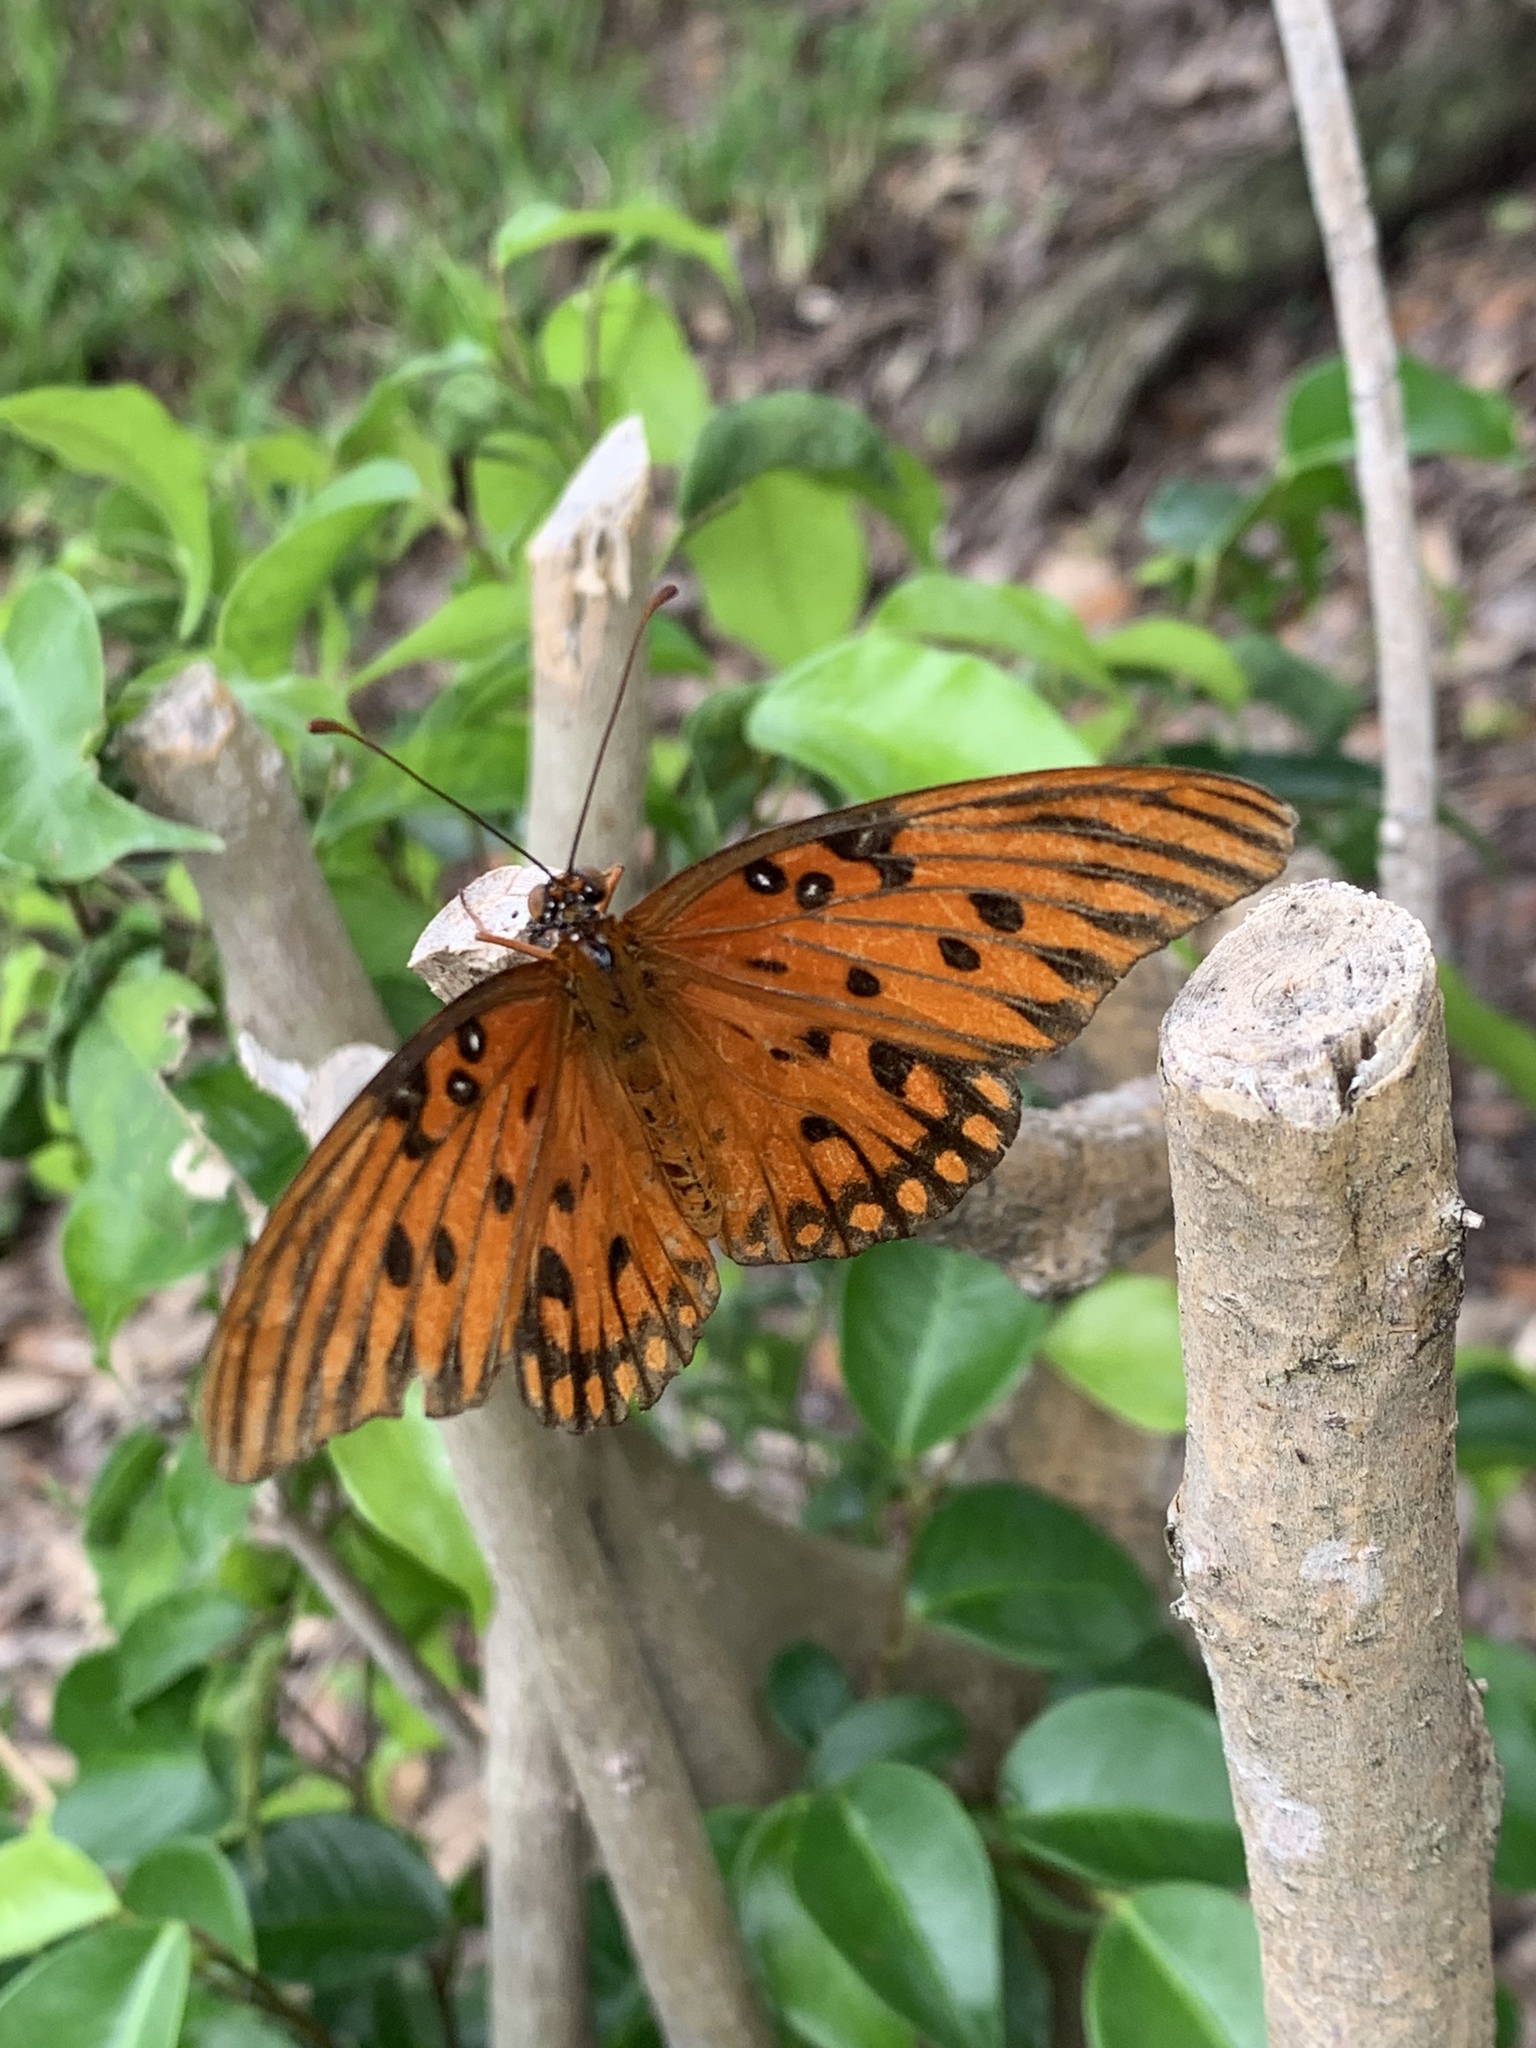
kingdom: Animalia
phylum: Arthropoda
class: Insecta
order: Lepidoptera
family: Nymphalidae
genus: Dione
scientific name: Dione vanillae
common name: Gulf fritillary
